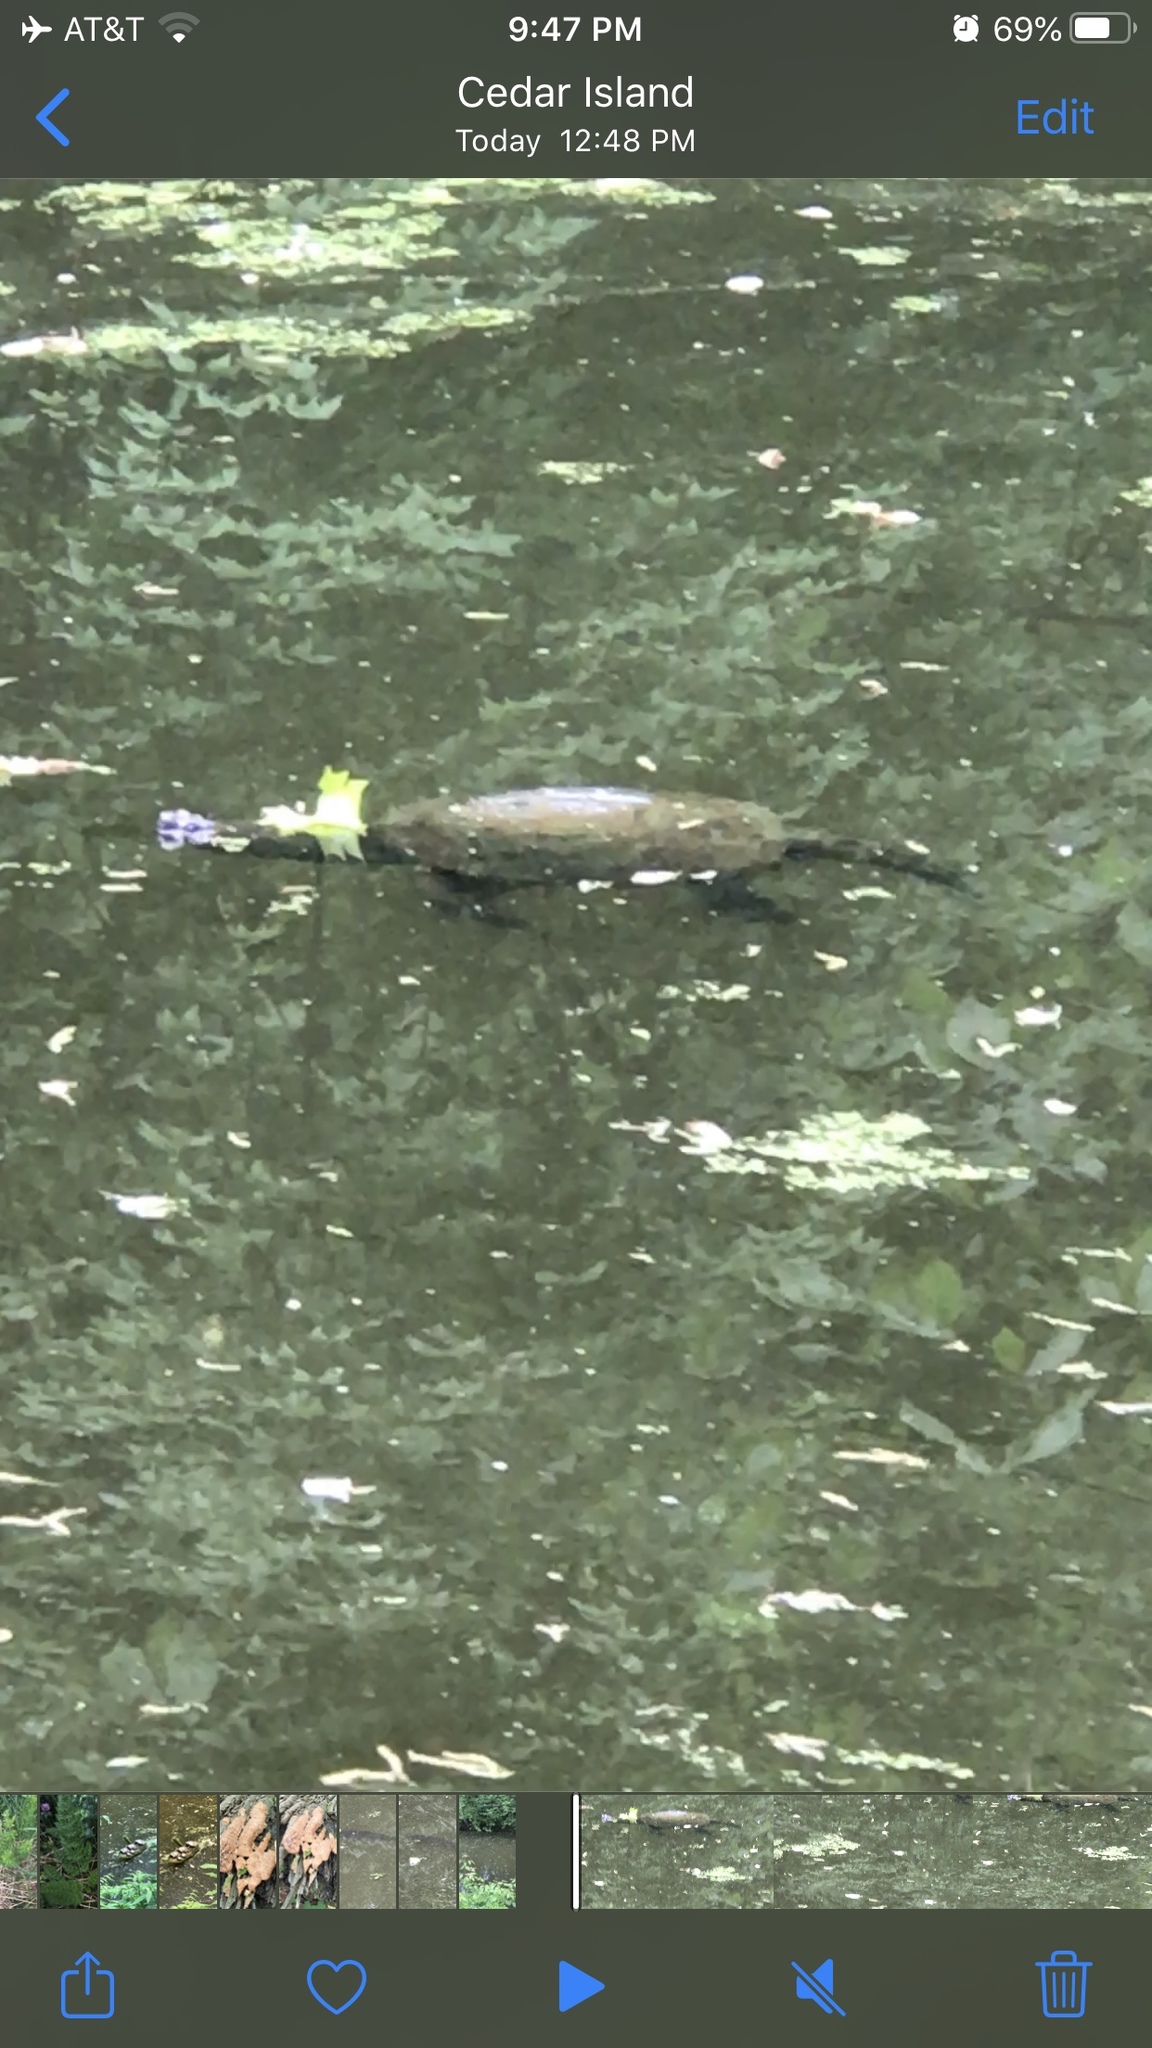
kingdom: Animalia
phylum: Chordata
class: Testudines
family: Chelydridae
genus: Chelydra
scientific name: Chelydra serpentina
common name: Common snapping turtle
